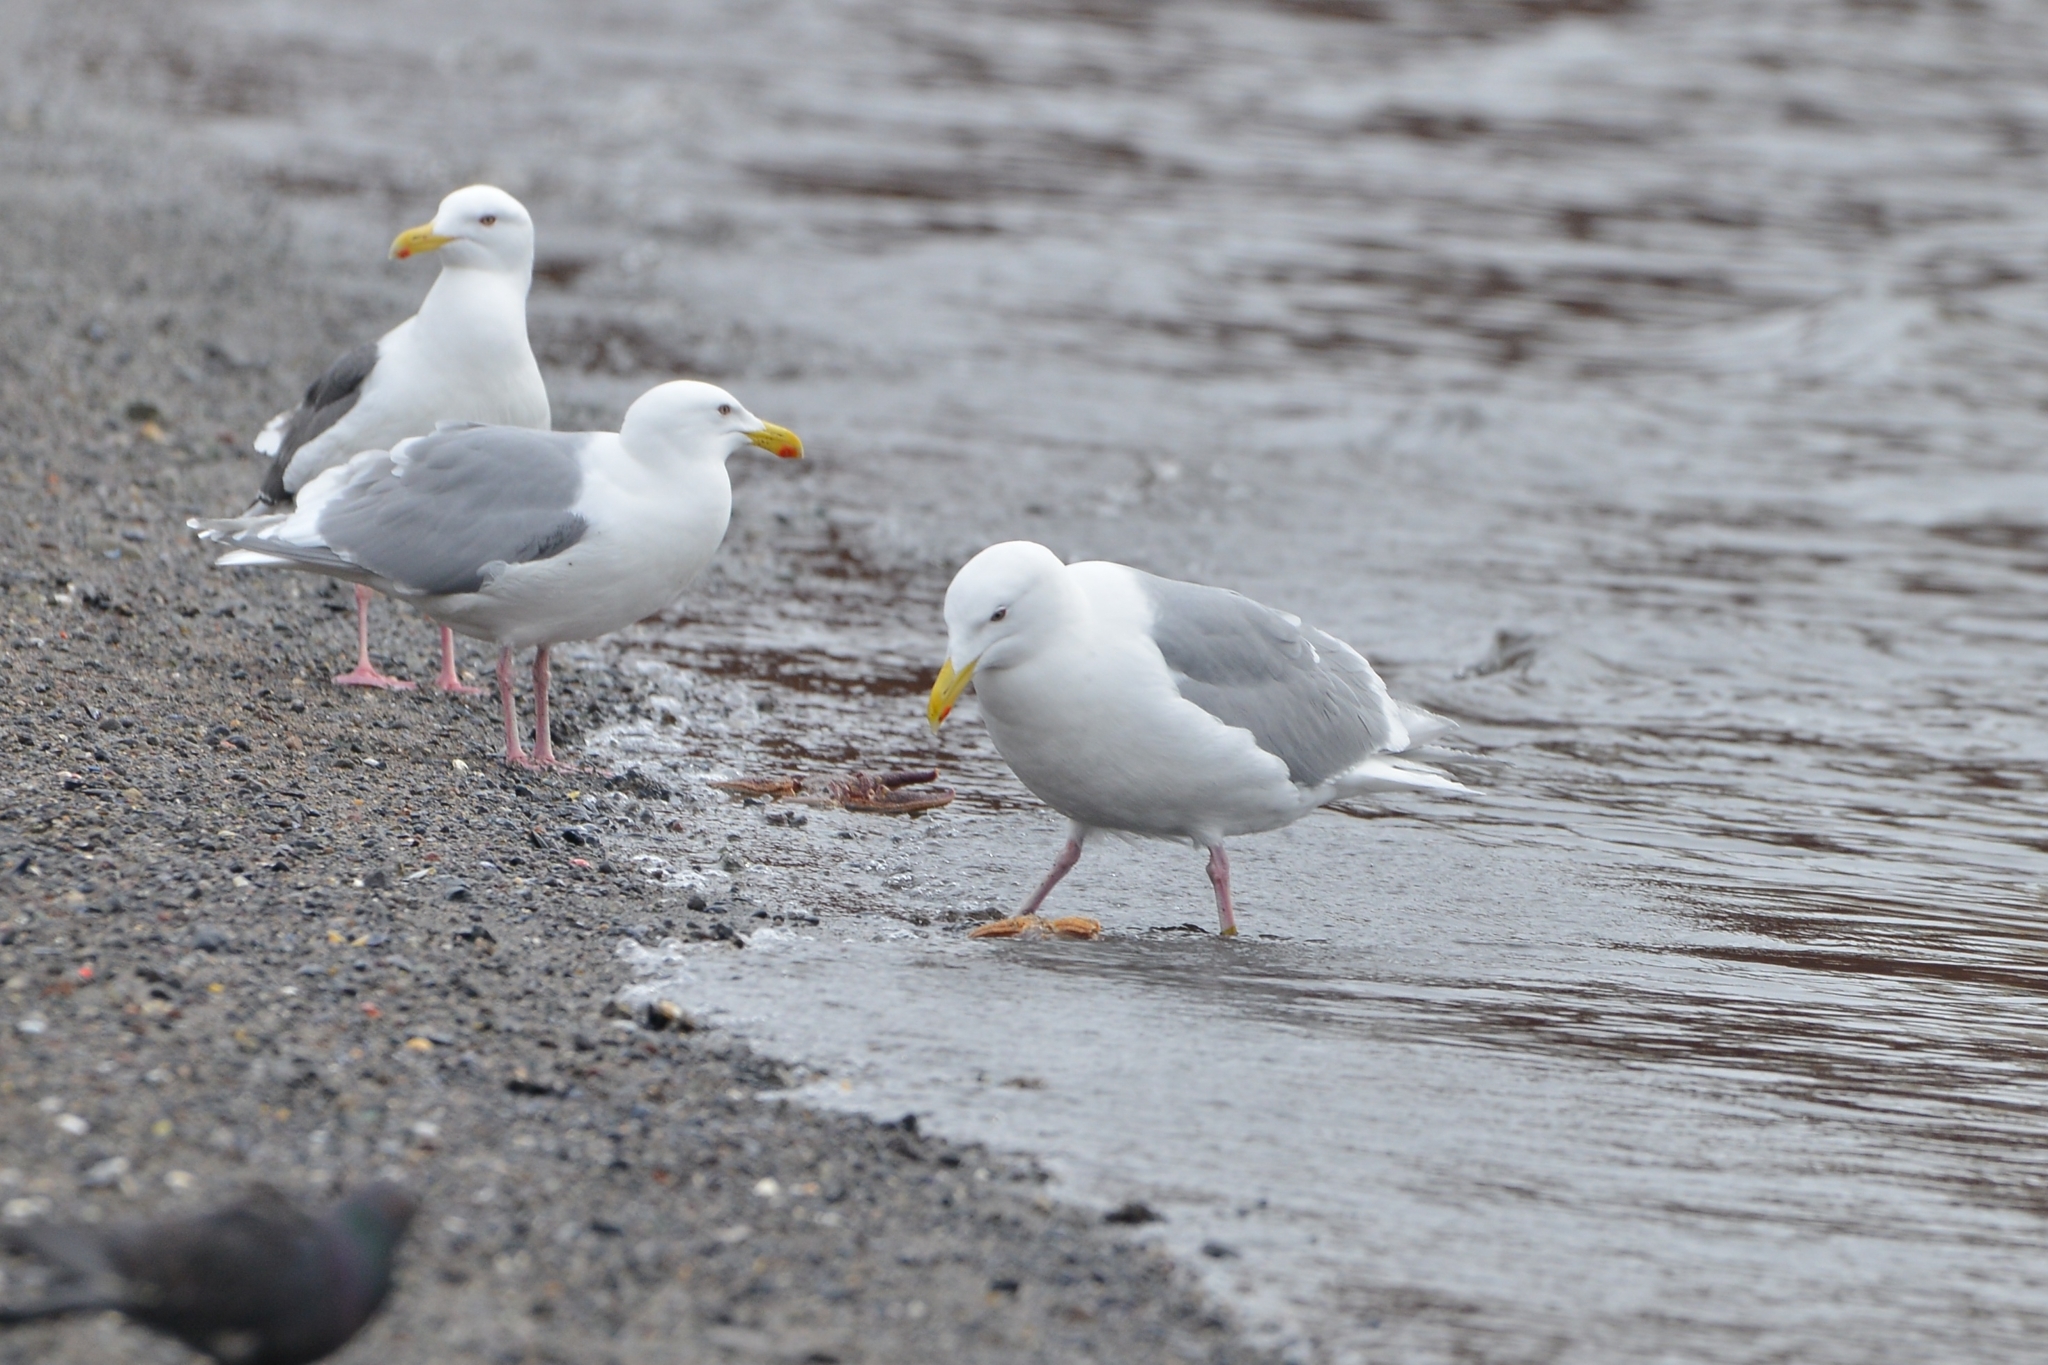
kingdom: Animalia
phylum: Chordata
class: Aves
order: Charadriiformes
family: Laridae
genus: Larus
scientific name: Larus glaucescens
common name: Glaucous-winged gull
